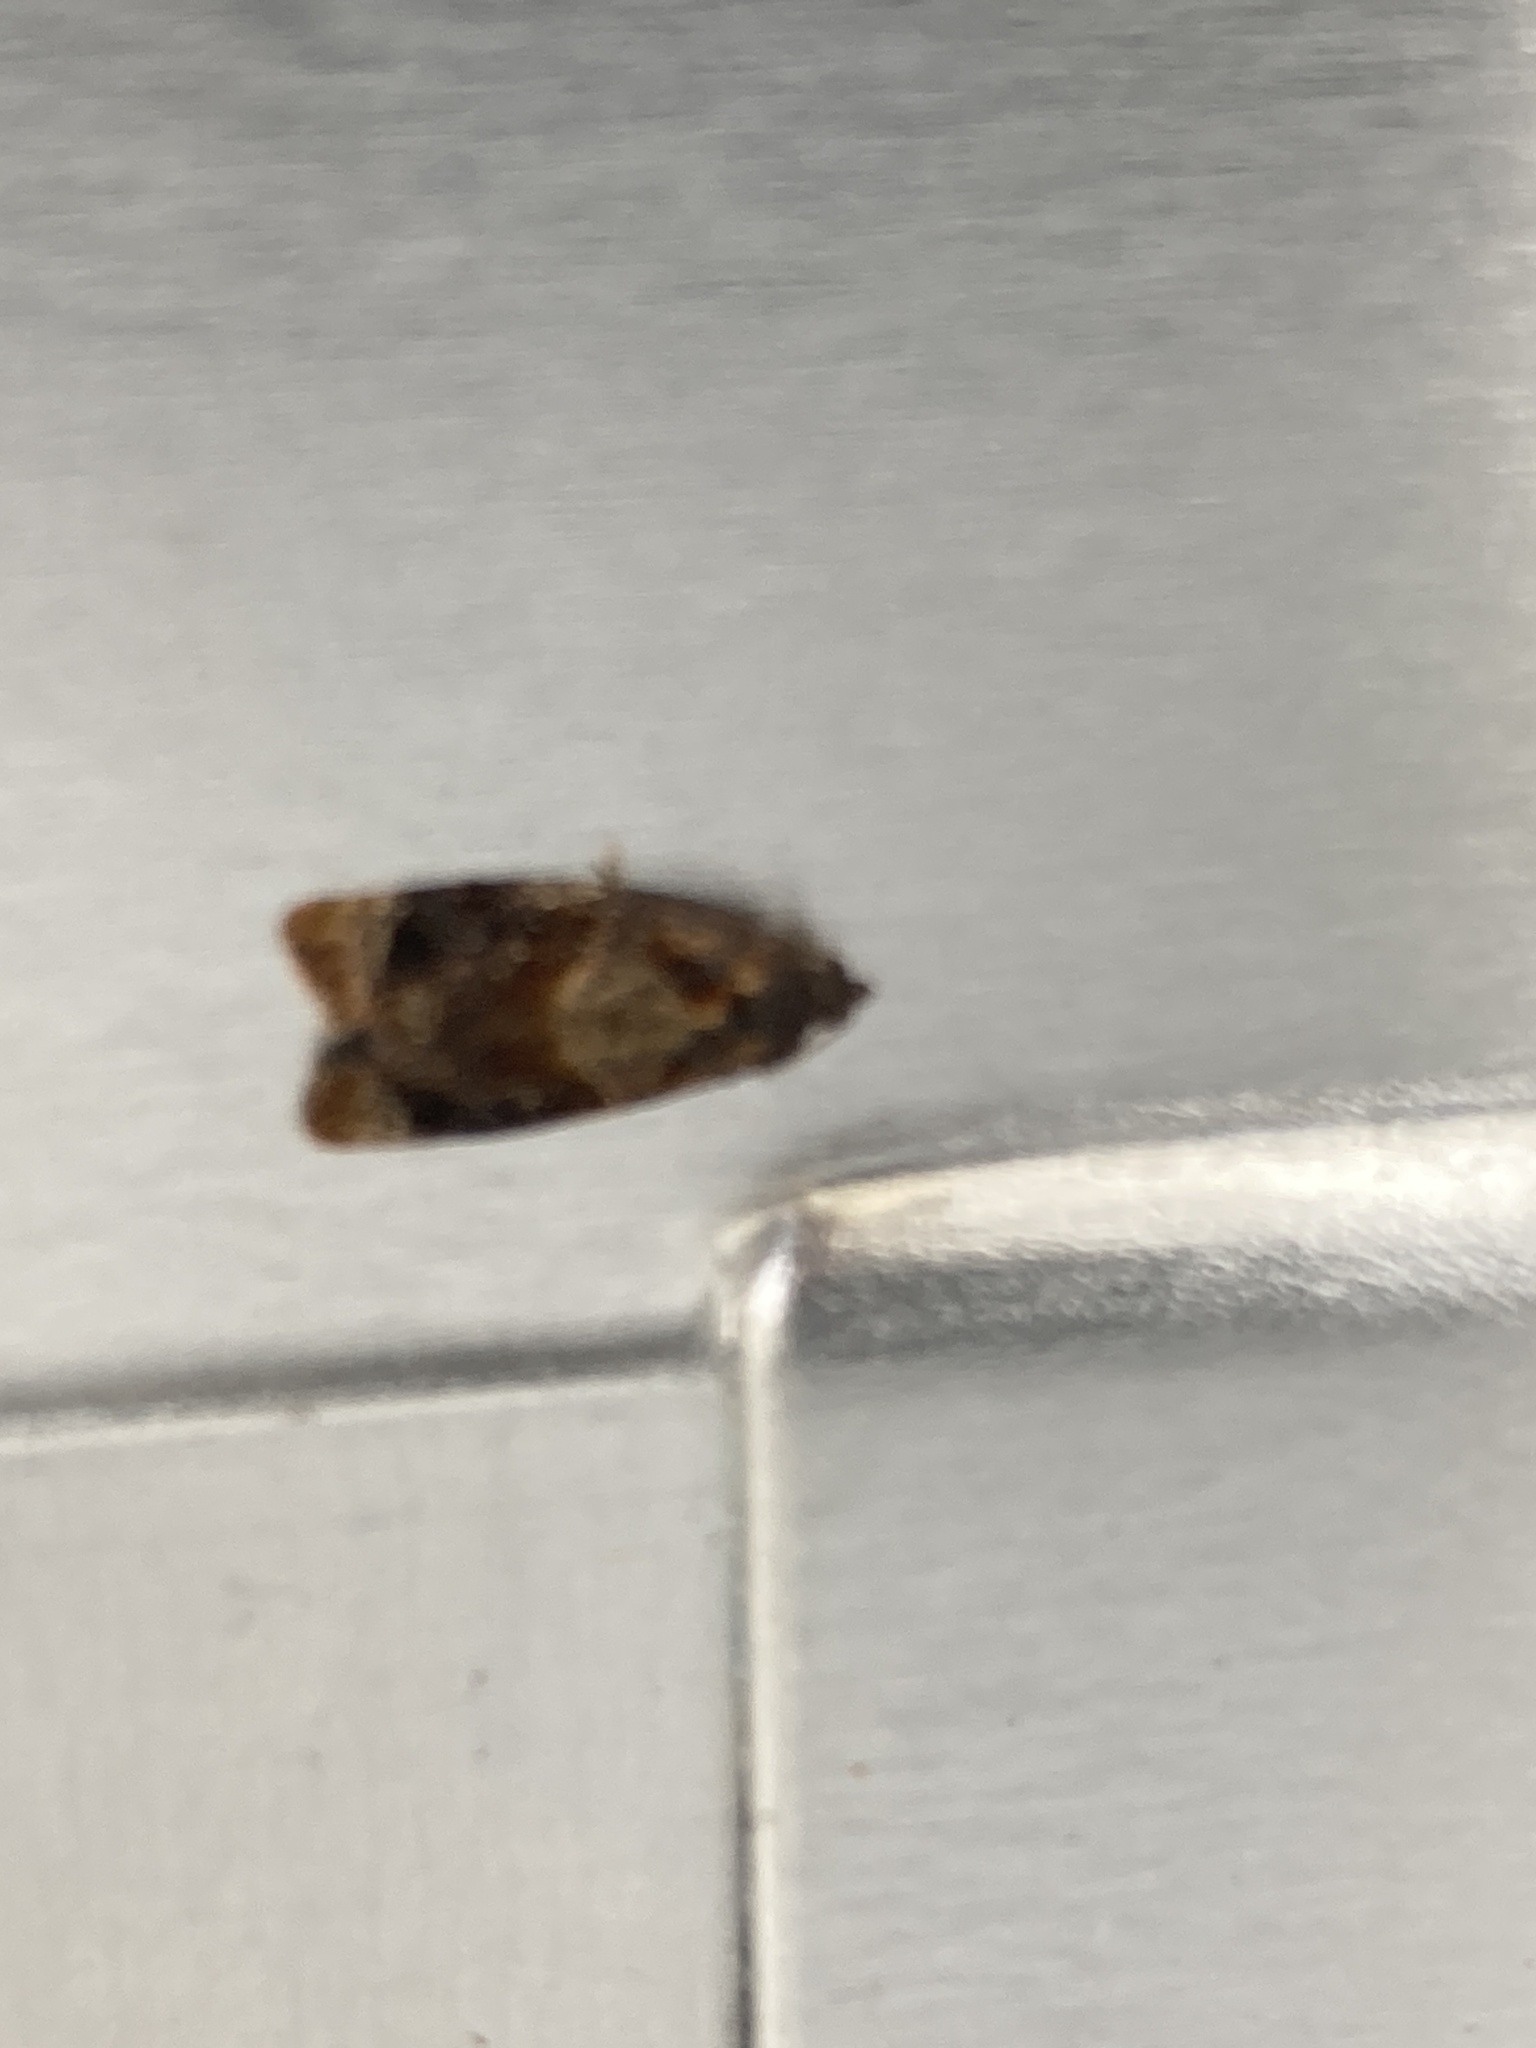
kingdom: Animalia
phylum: Arthropoda
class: Insecta
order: Lepidoptera
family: Tortricidae
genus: Ditula
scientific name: Ditula angustiorana
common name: Red-barred tortrix
